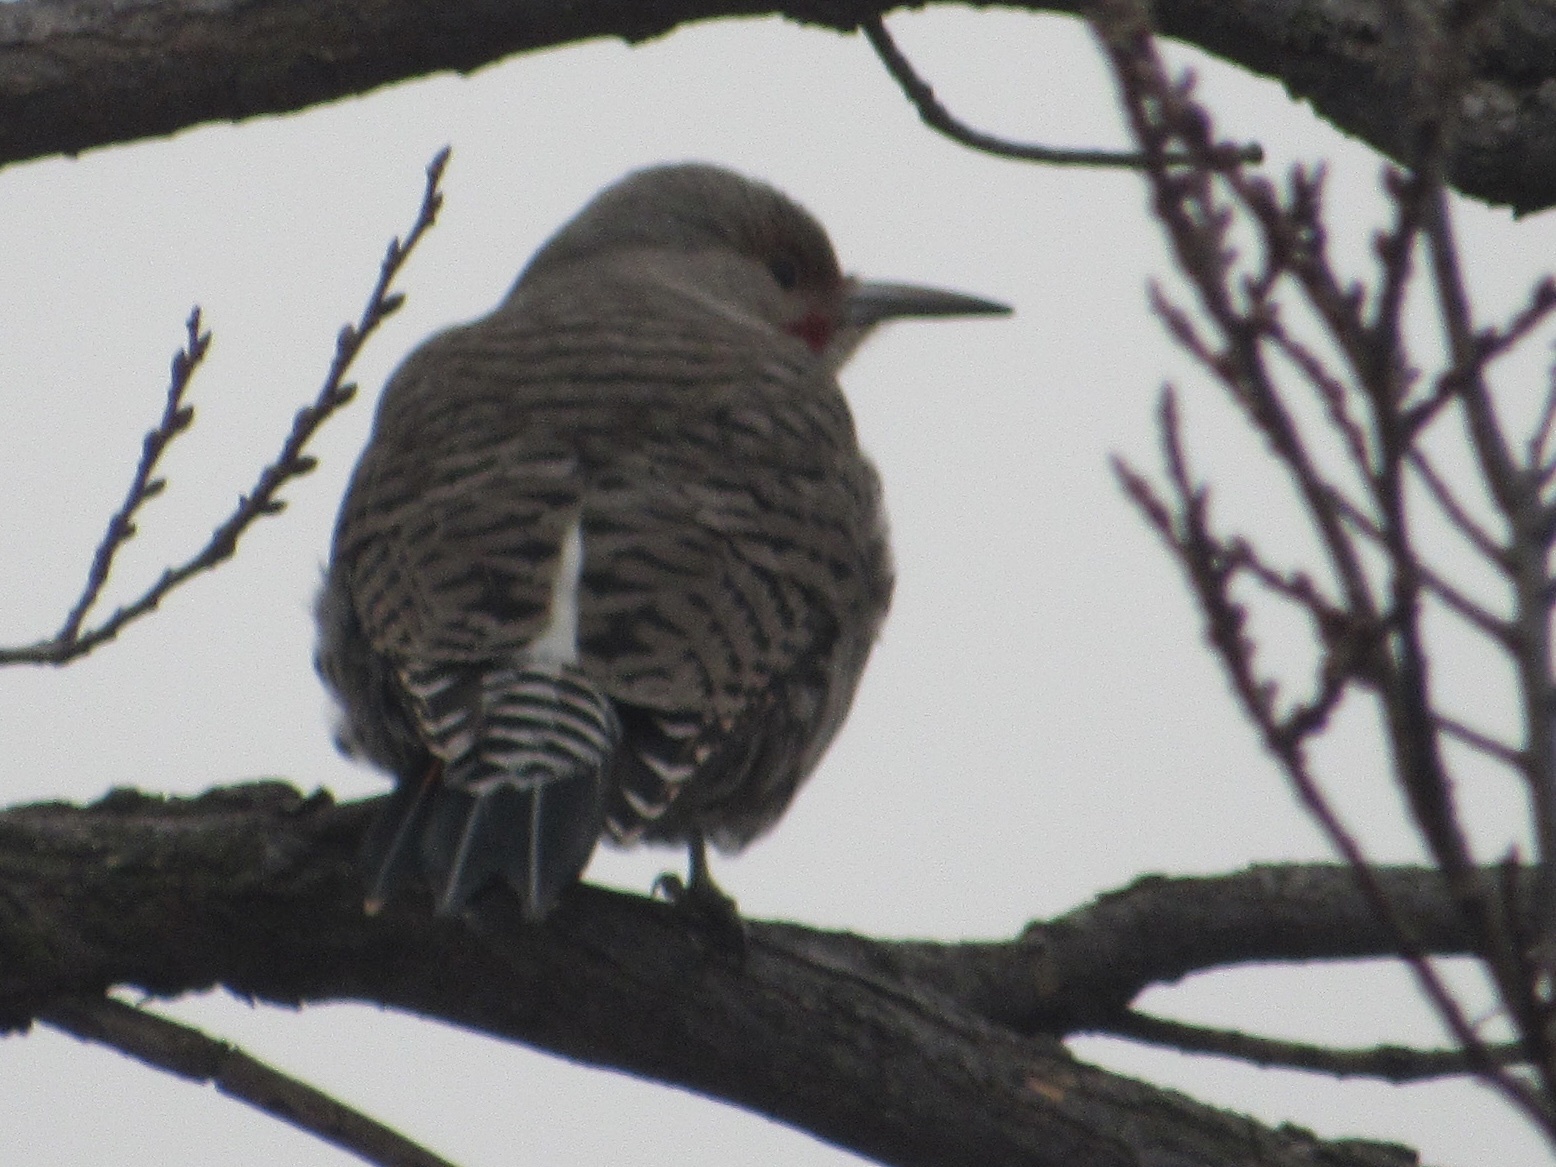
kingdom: Animalia
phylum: Chordata
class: Aves
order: Piciformes
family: Picidae
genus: Colaptes
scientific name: Colaptes auratus
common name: Northern flicker
